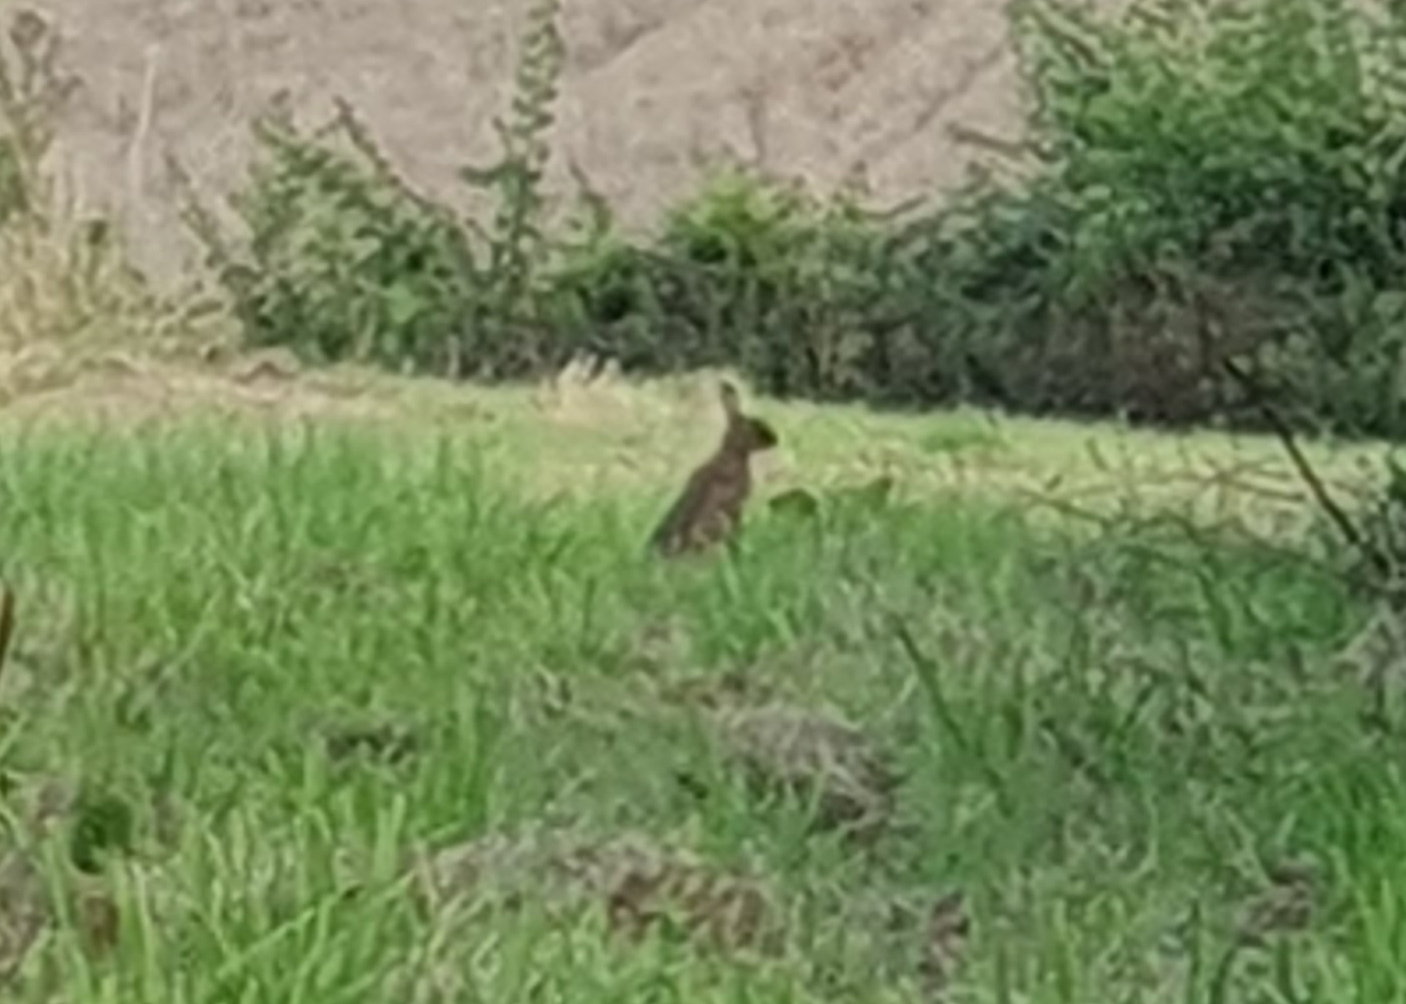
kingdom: Animalia
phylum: Chordata
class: Mammalia
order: Lagomorpha
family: Leporidae
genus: Oryctolagus
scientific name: Oryctolagus cuniculus
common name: European rabbit
